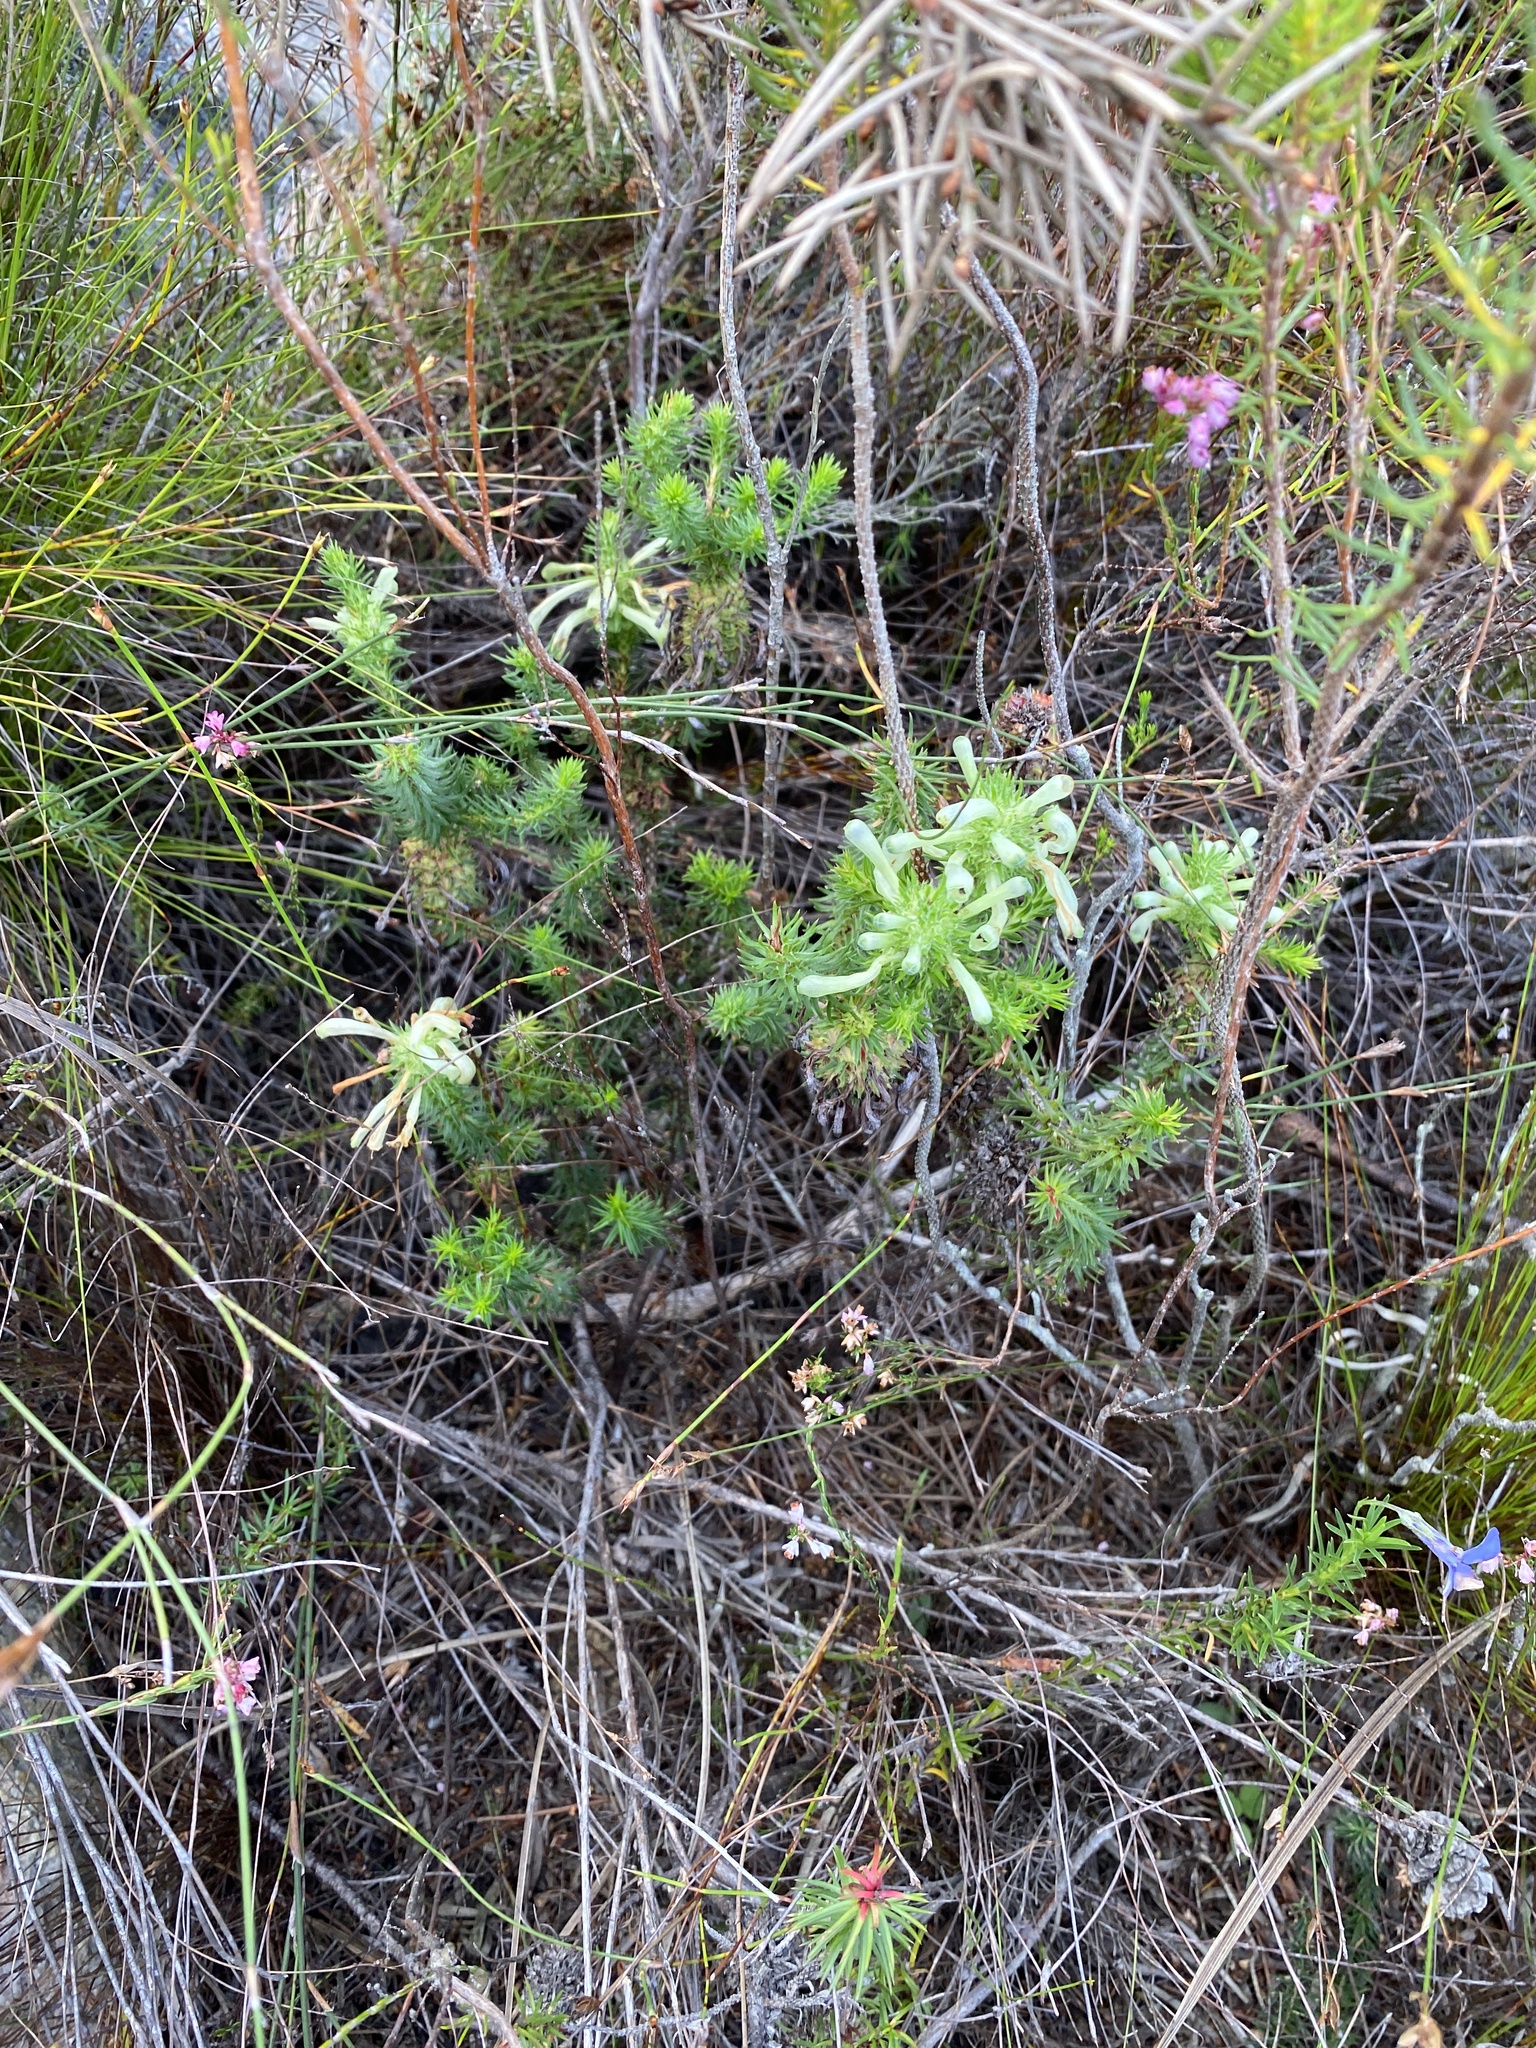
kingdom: Plantae
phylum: Tracheophyta
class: Magnoliopsida
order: Ericales
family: Ericaceae
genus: Erica
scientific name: Erica sessiliflora
